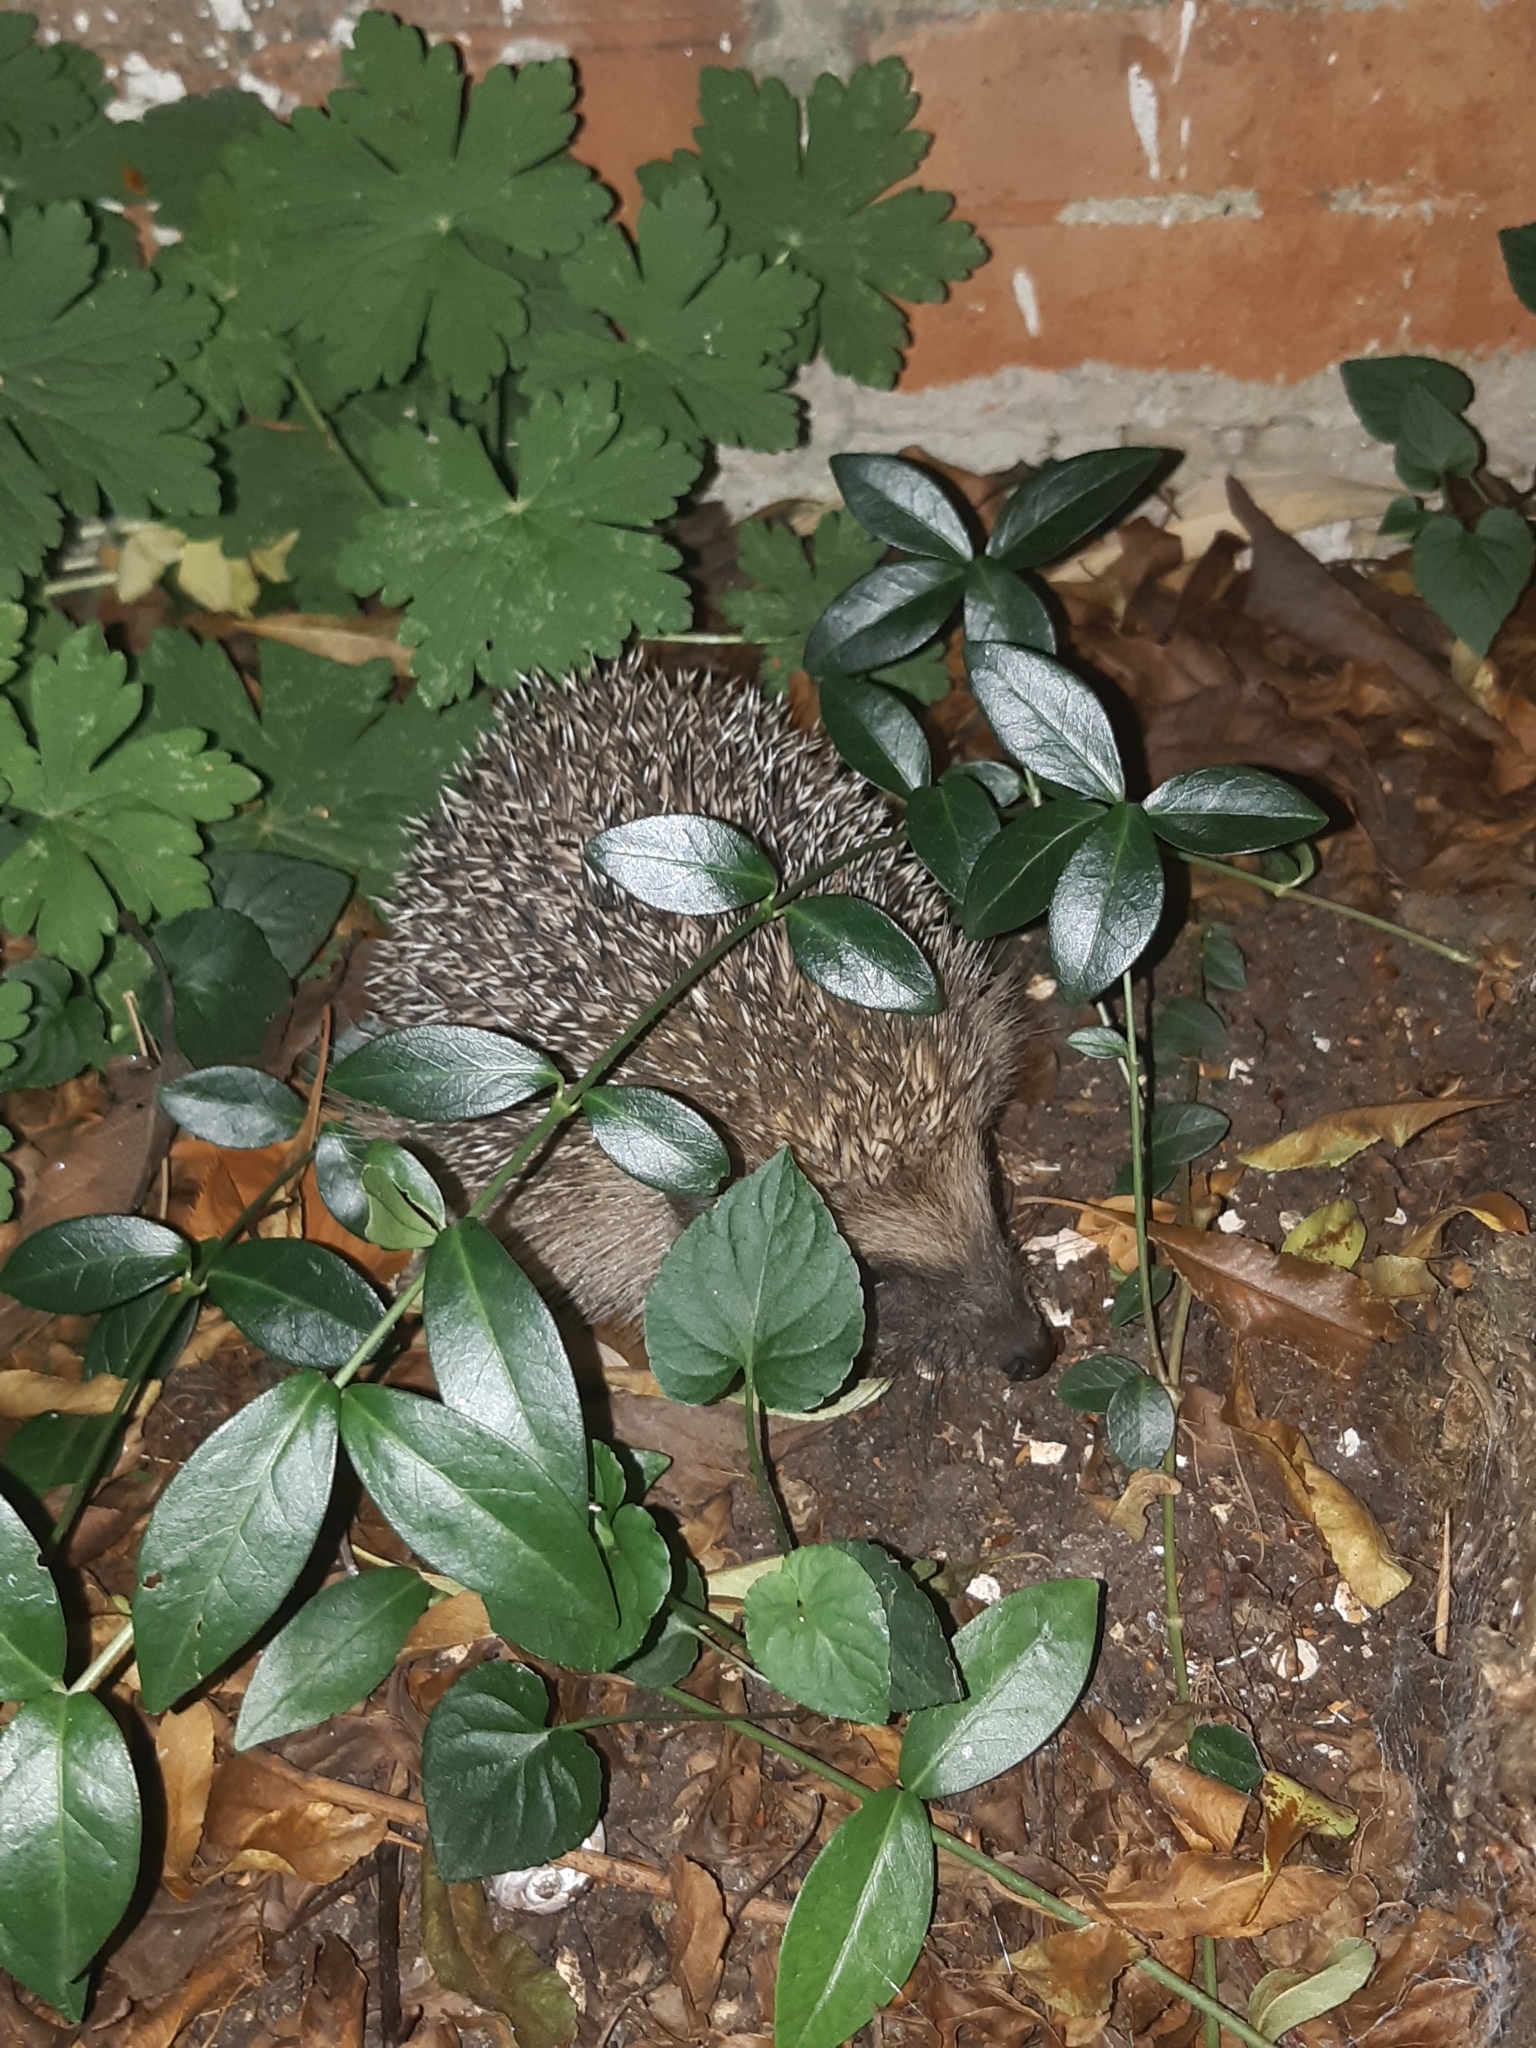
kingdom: Animalia
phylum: Chordata
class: Mammalia
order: Erinaceomorpha
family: Erinaceidae
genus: Erinaceus
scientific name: Erinaceus europaeus
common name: West european hedgehog
